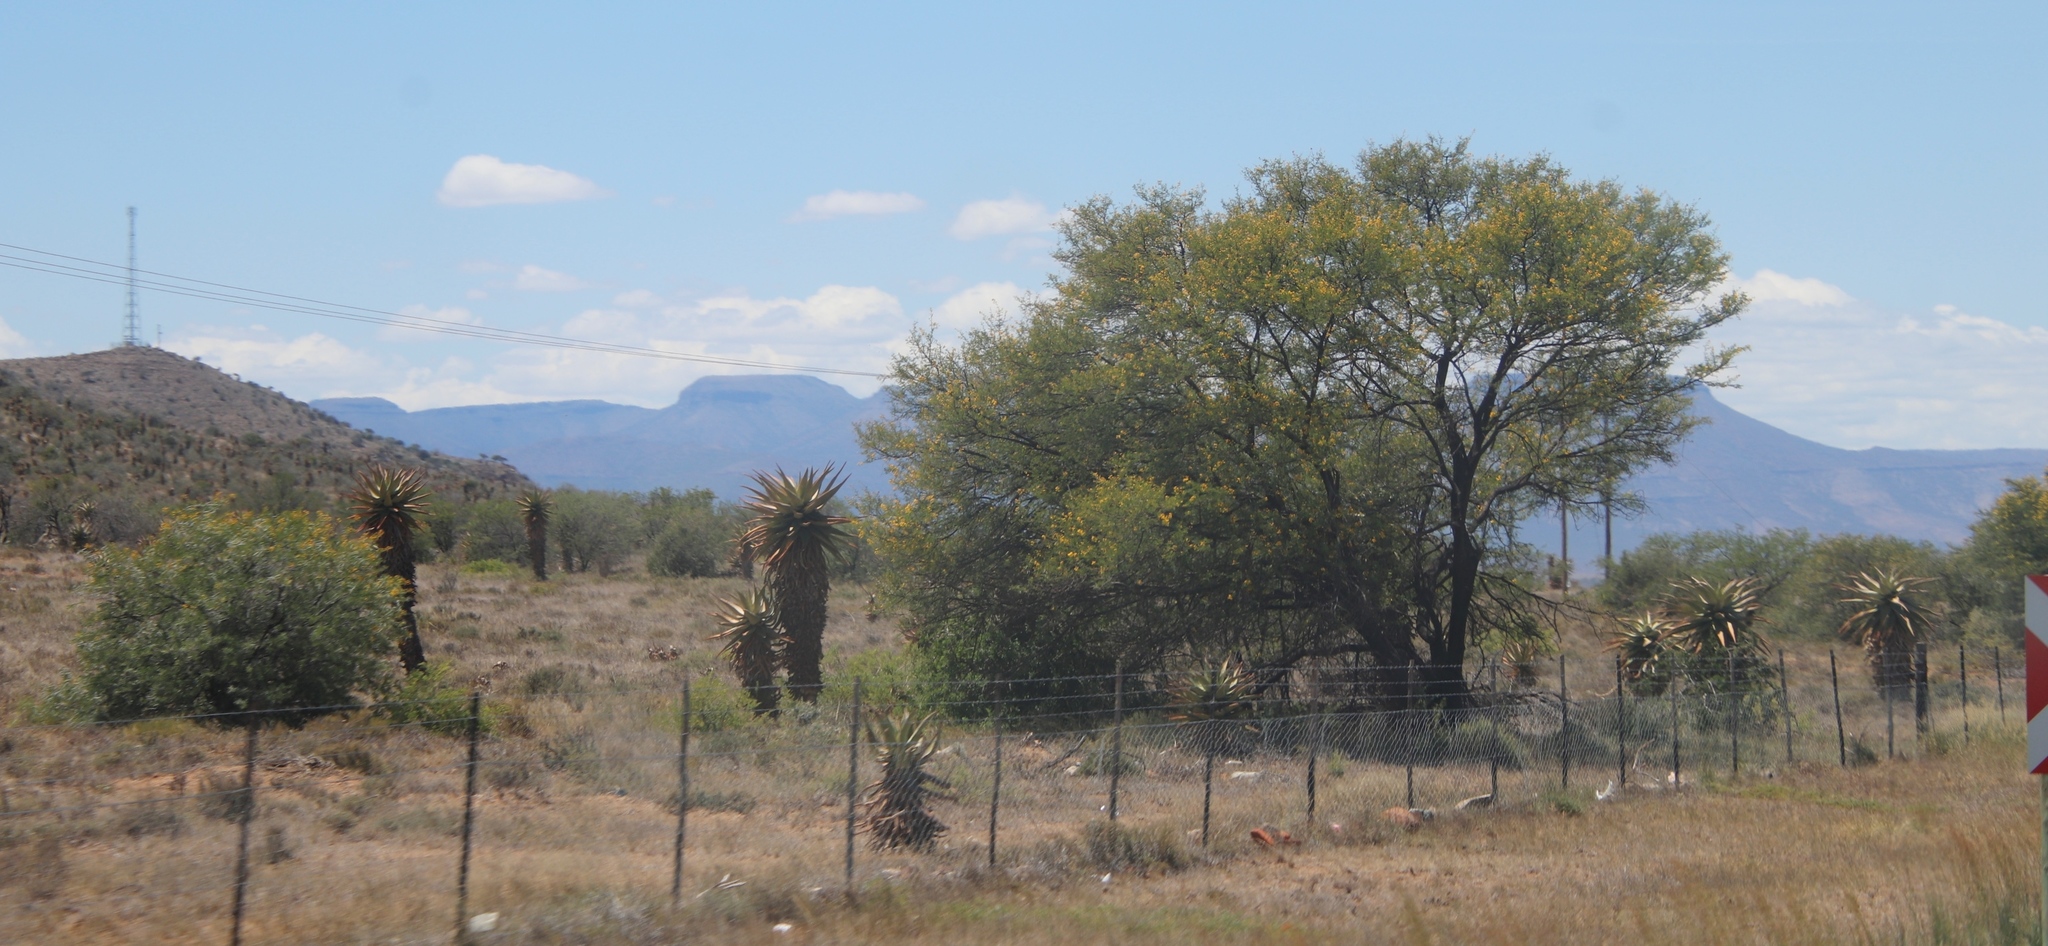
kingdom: Plantae
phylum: Tracheophyta
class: Magnoliopsida
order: Fabales
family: Fabaceae
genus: Vachellia
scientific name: Vachellia karroo
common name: Sweet thorn
